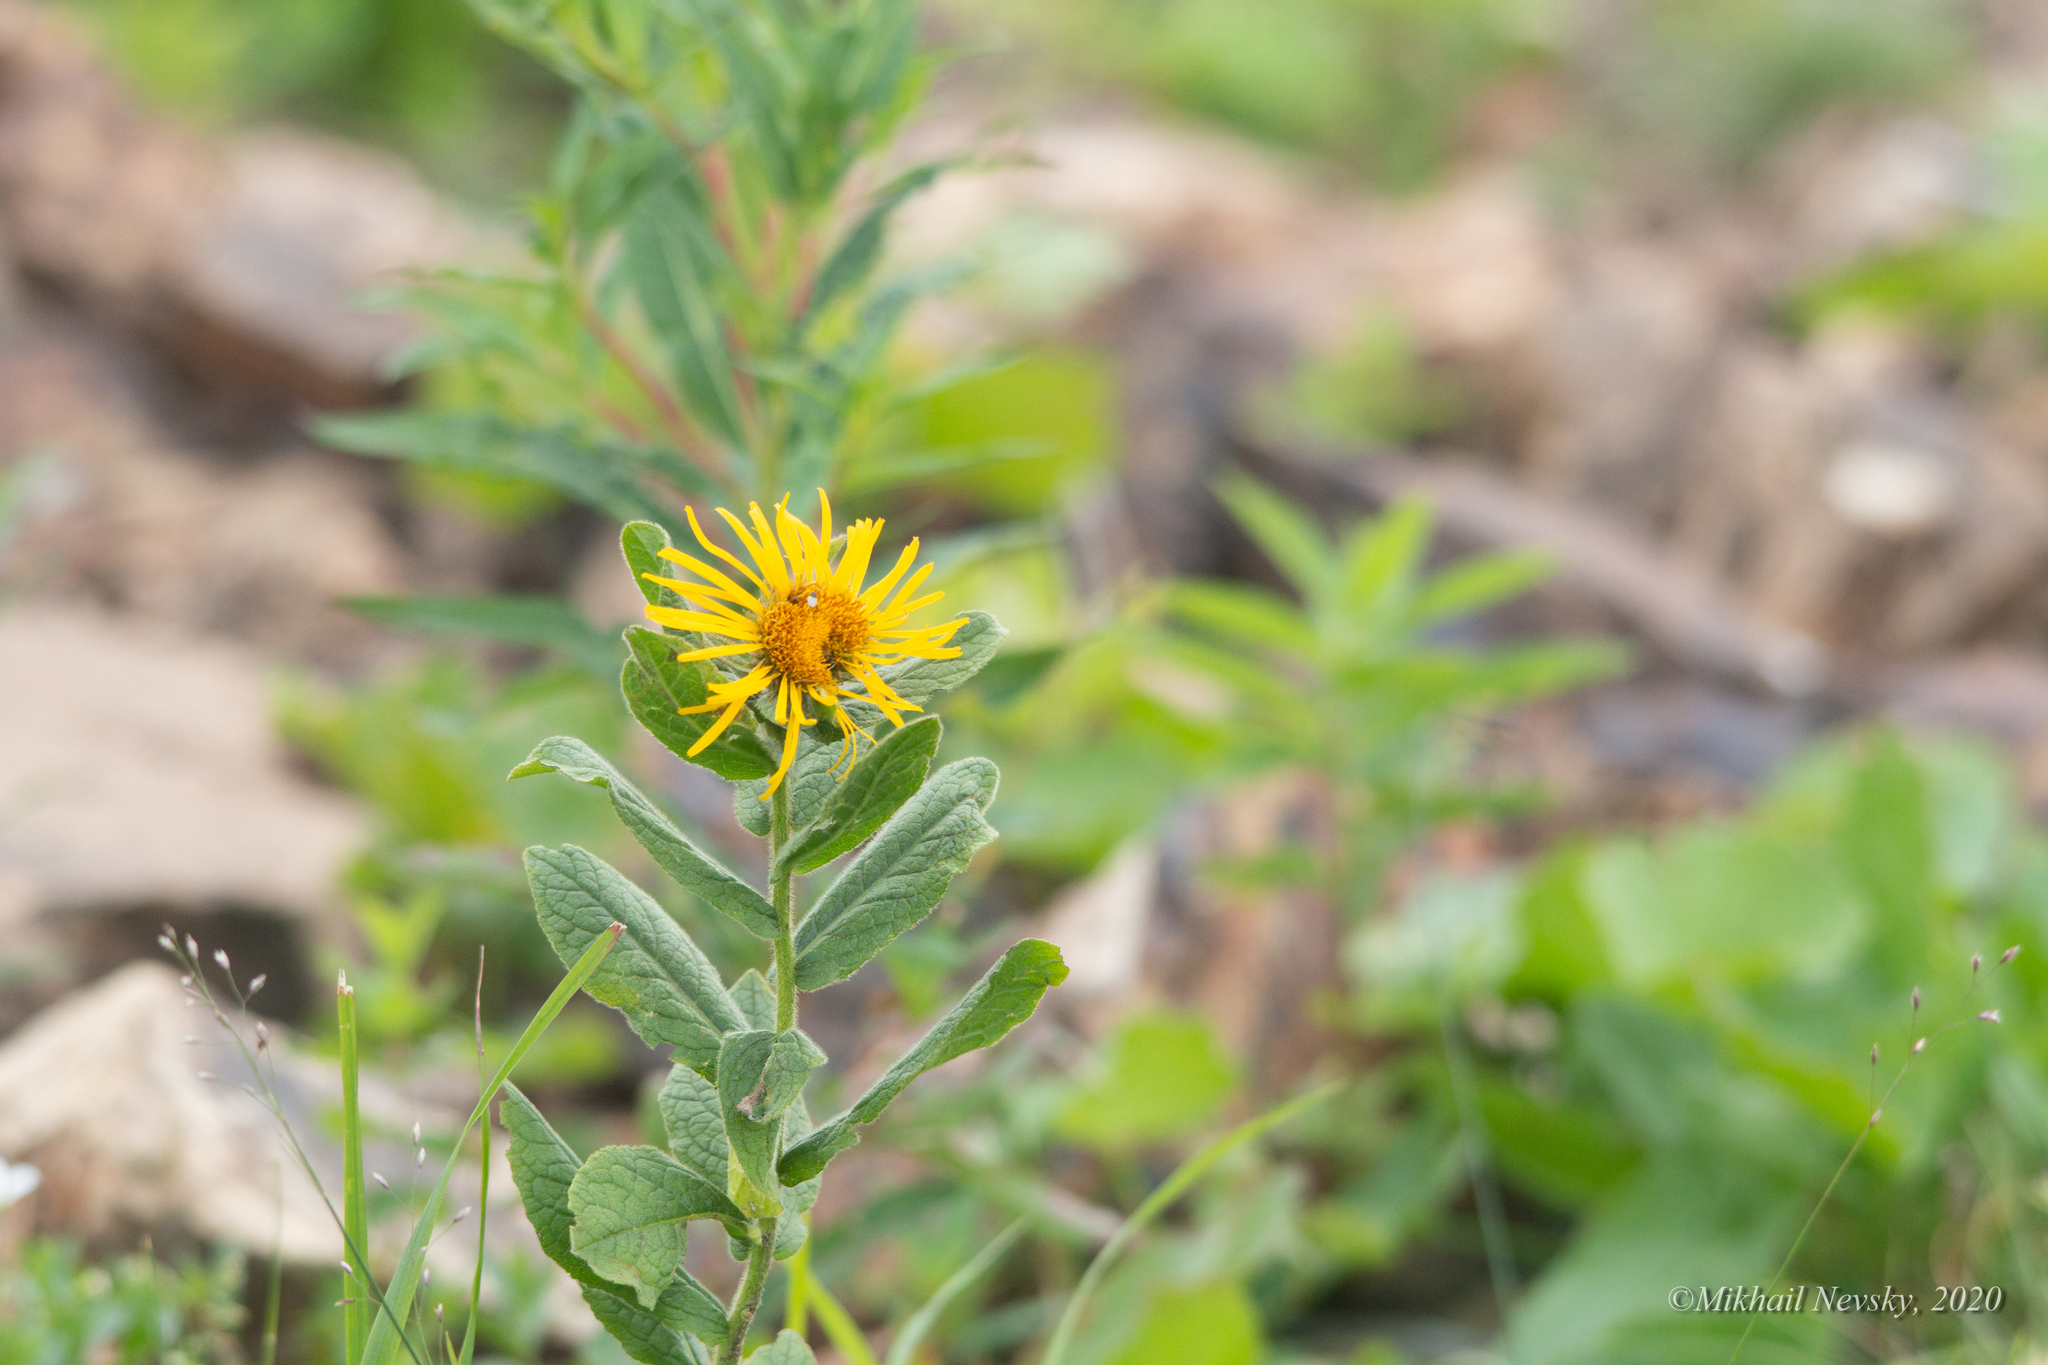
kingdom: Plantae
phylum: Tracheophyta
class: Magnoliopsida
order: Asterales
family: Asteraceae
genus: Pentanema
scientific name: Pentanema orientale
